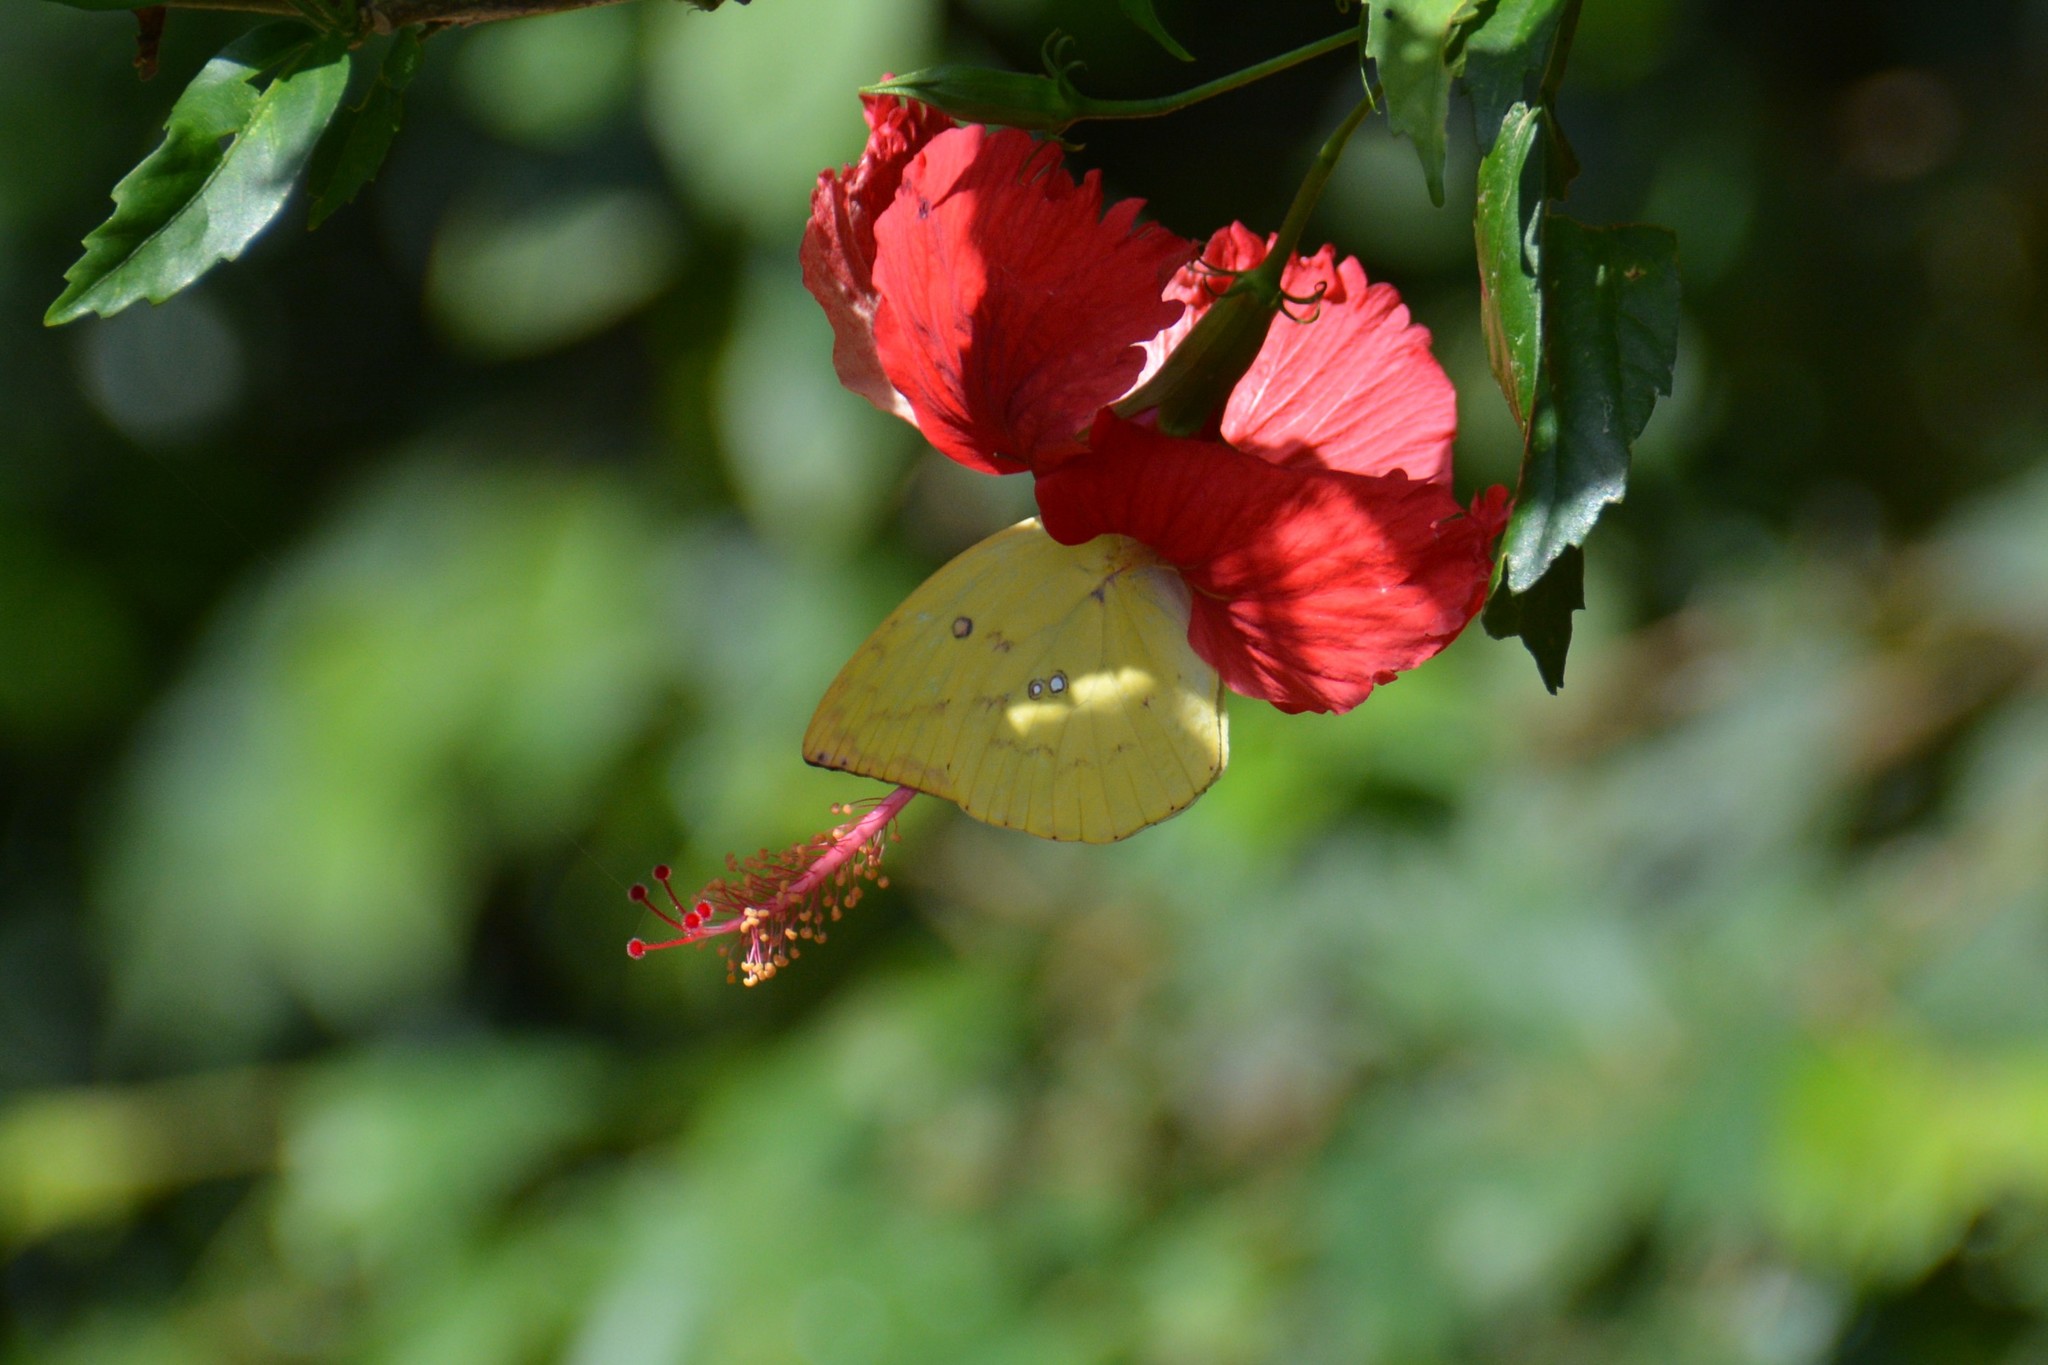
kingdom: Animalia
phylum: Arthropoda
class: Insecta
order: Lepidoptera
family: Pieridae
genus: Catopsilia
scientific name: Catopsilia pomona
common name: Common emigrant
